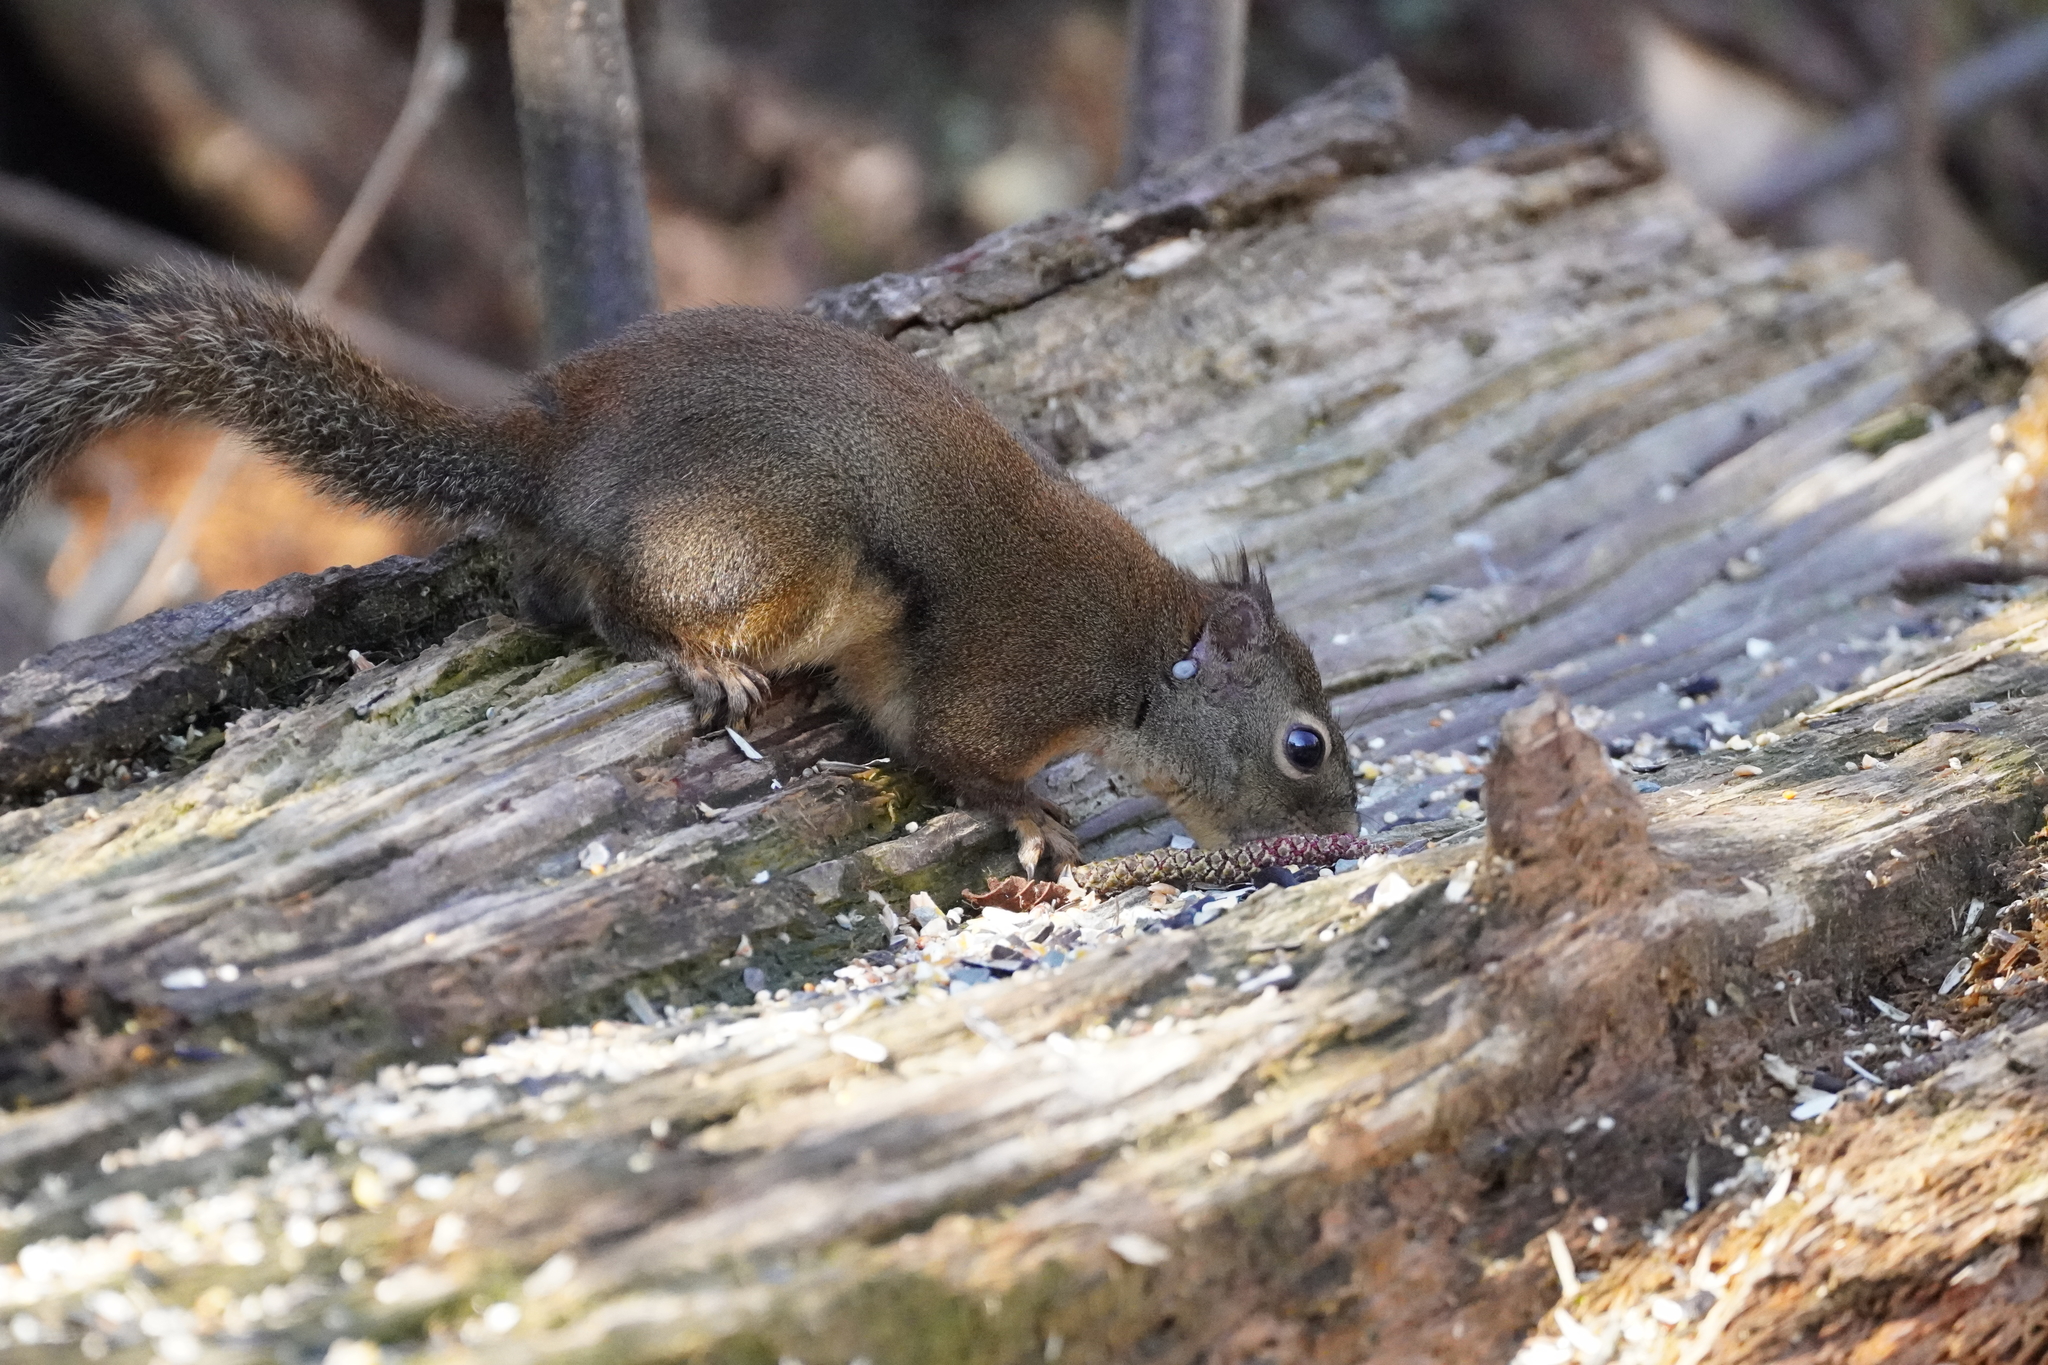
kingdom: Animalia
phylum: Chordata
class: Mammalia
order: Rodentia
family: Sciuridae
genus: Tamiasciurus
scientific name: Tamiasciurus douglasii
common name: Douglas's squirrel
